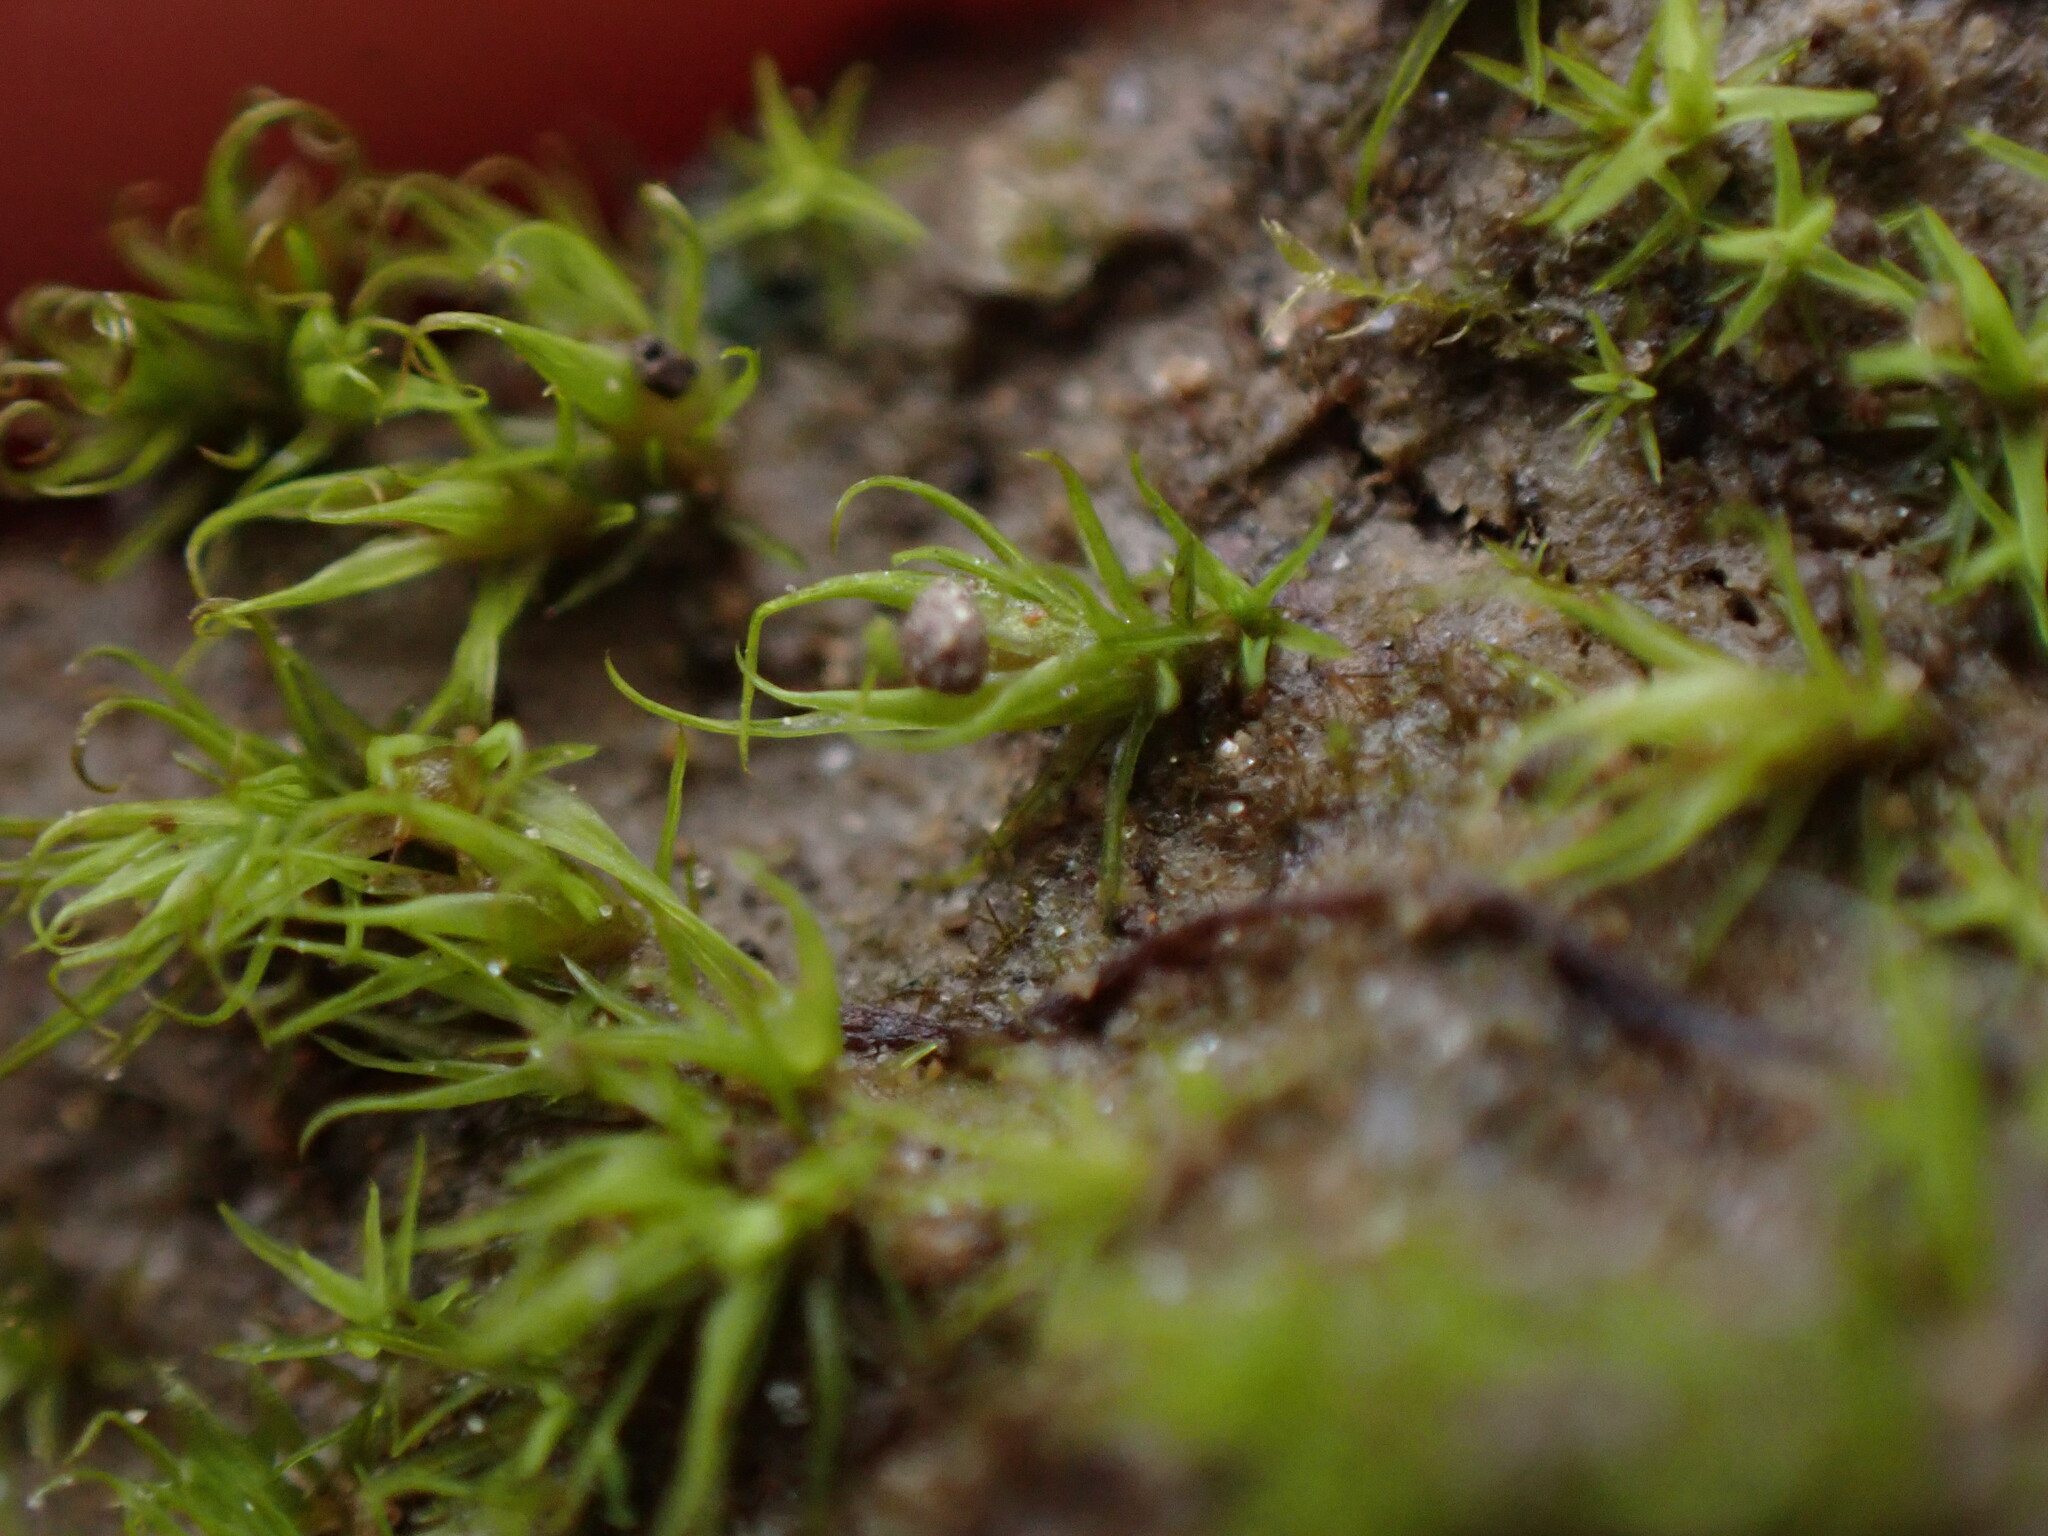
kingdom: Plantae
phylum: Bryophyta
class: Bryopsida
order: Pottiales
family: Pottiaceae
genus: Weissia
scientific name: Weissia muhlenbergiana
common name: Mühlenberg's weissia
